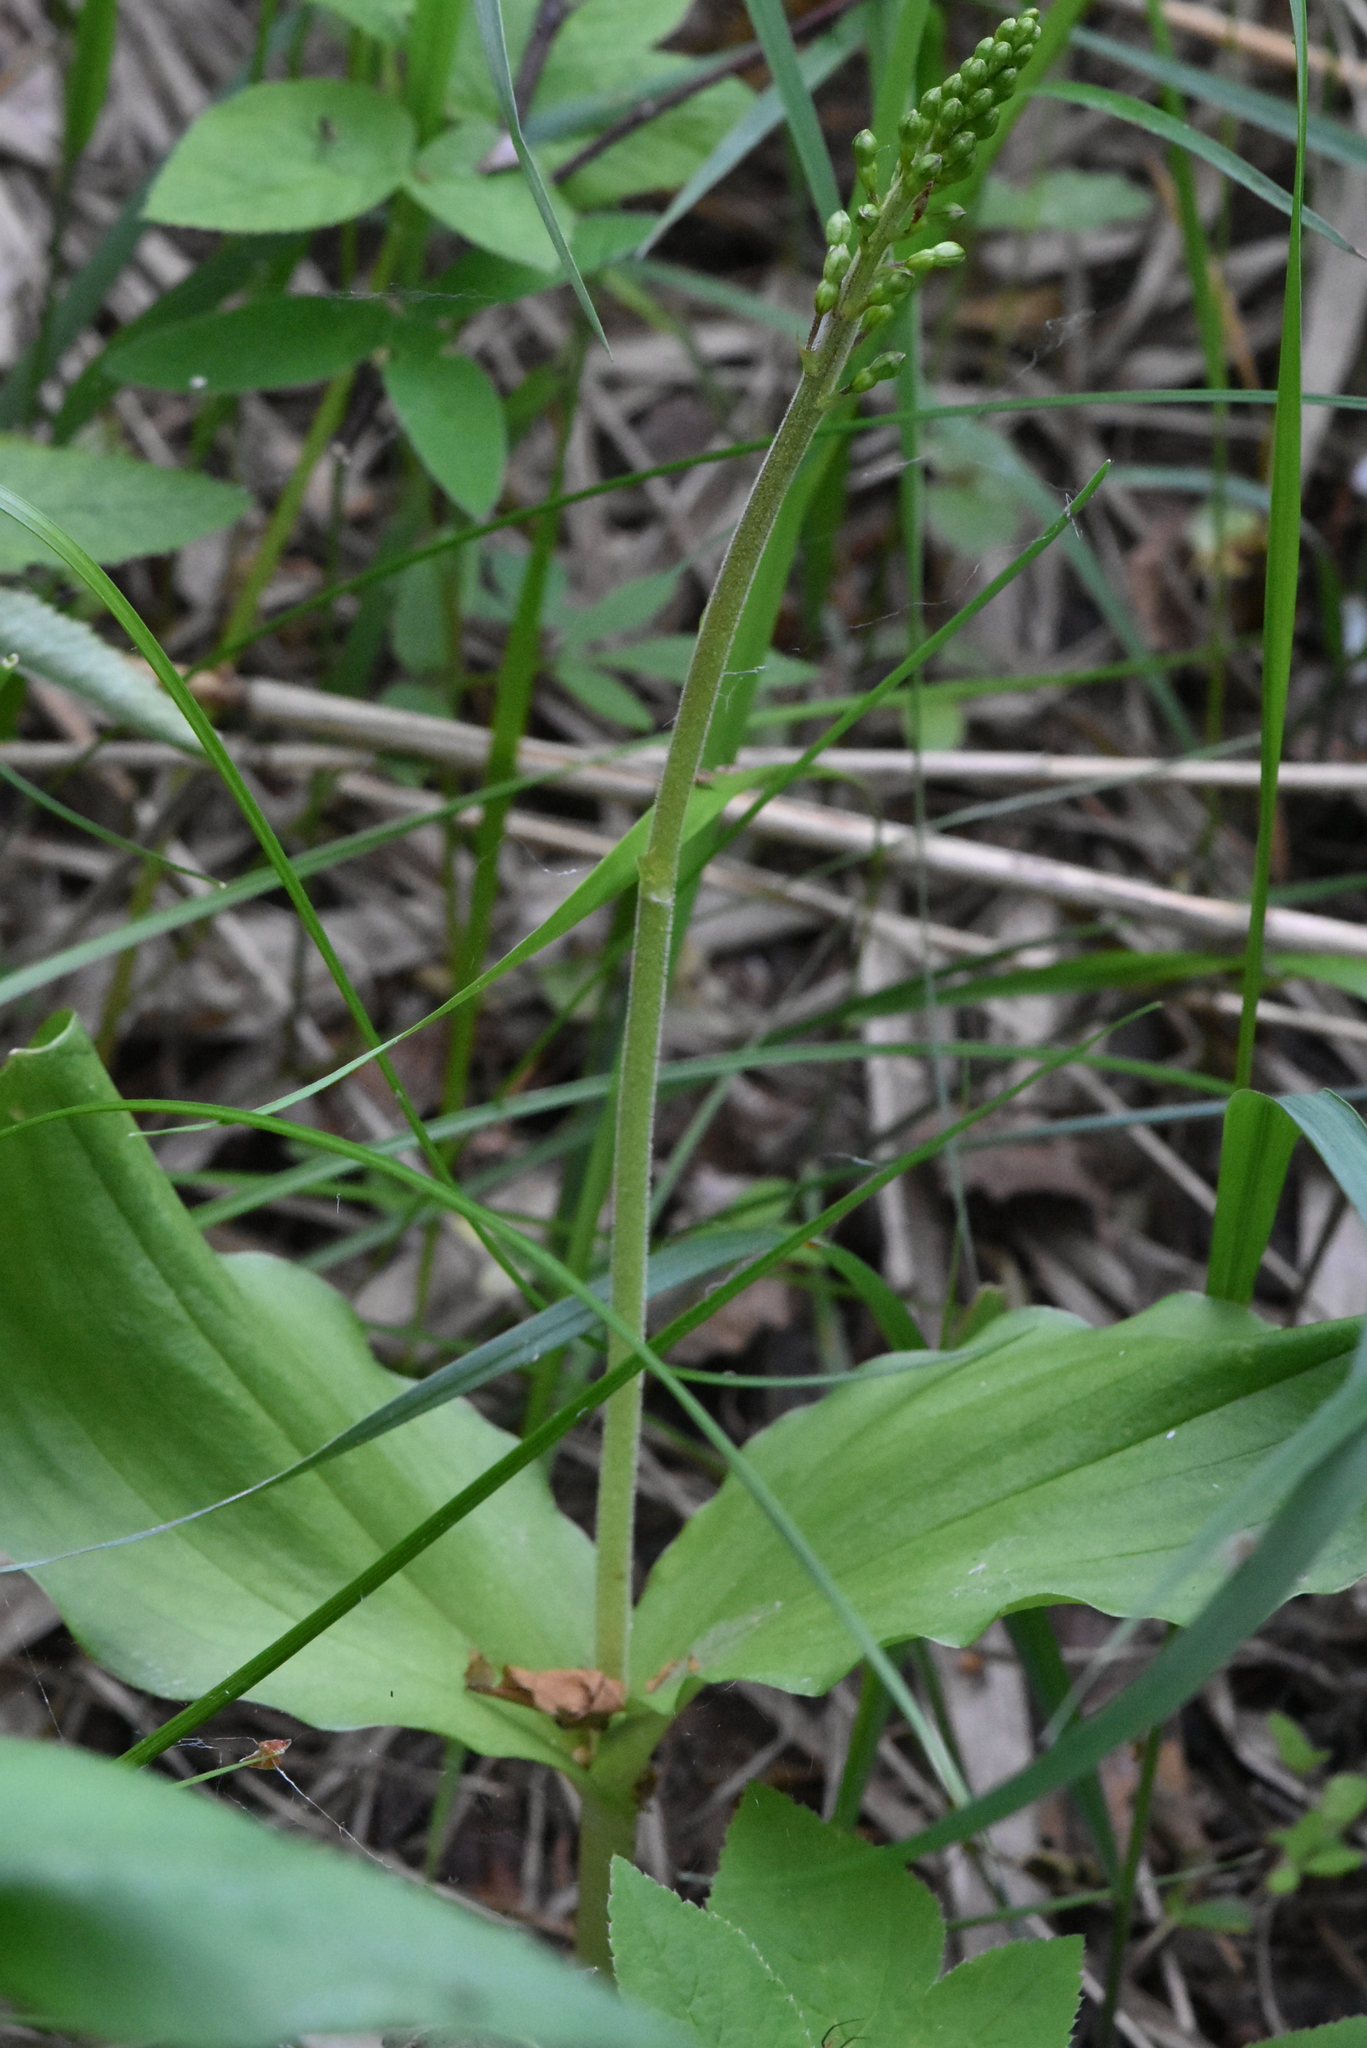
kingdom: Plantae
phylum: Tracheophyta
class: Liliopsida
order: Asparagales
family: Orchidaceae
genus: Neottia
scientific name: Neottia ovata
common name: Common twayblade
